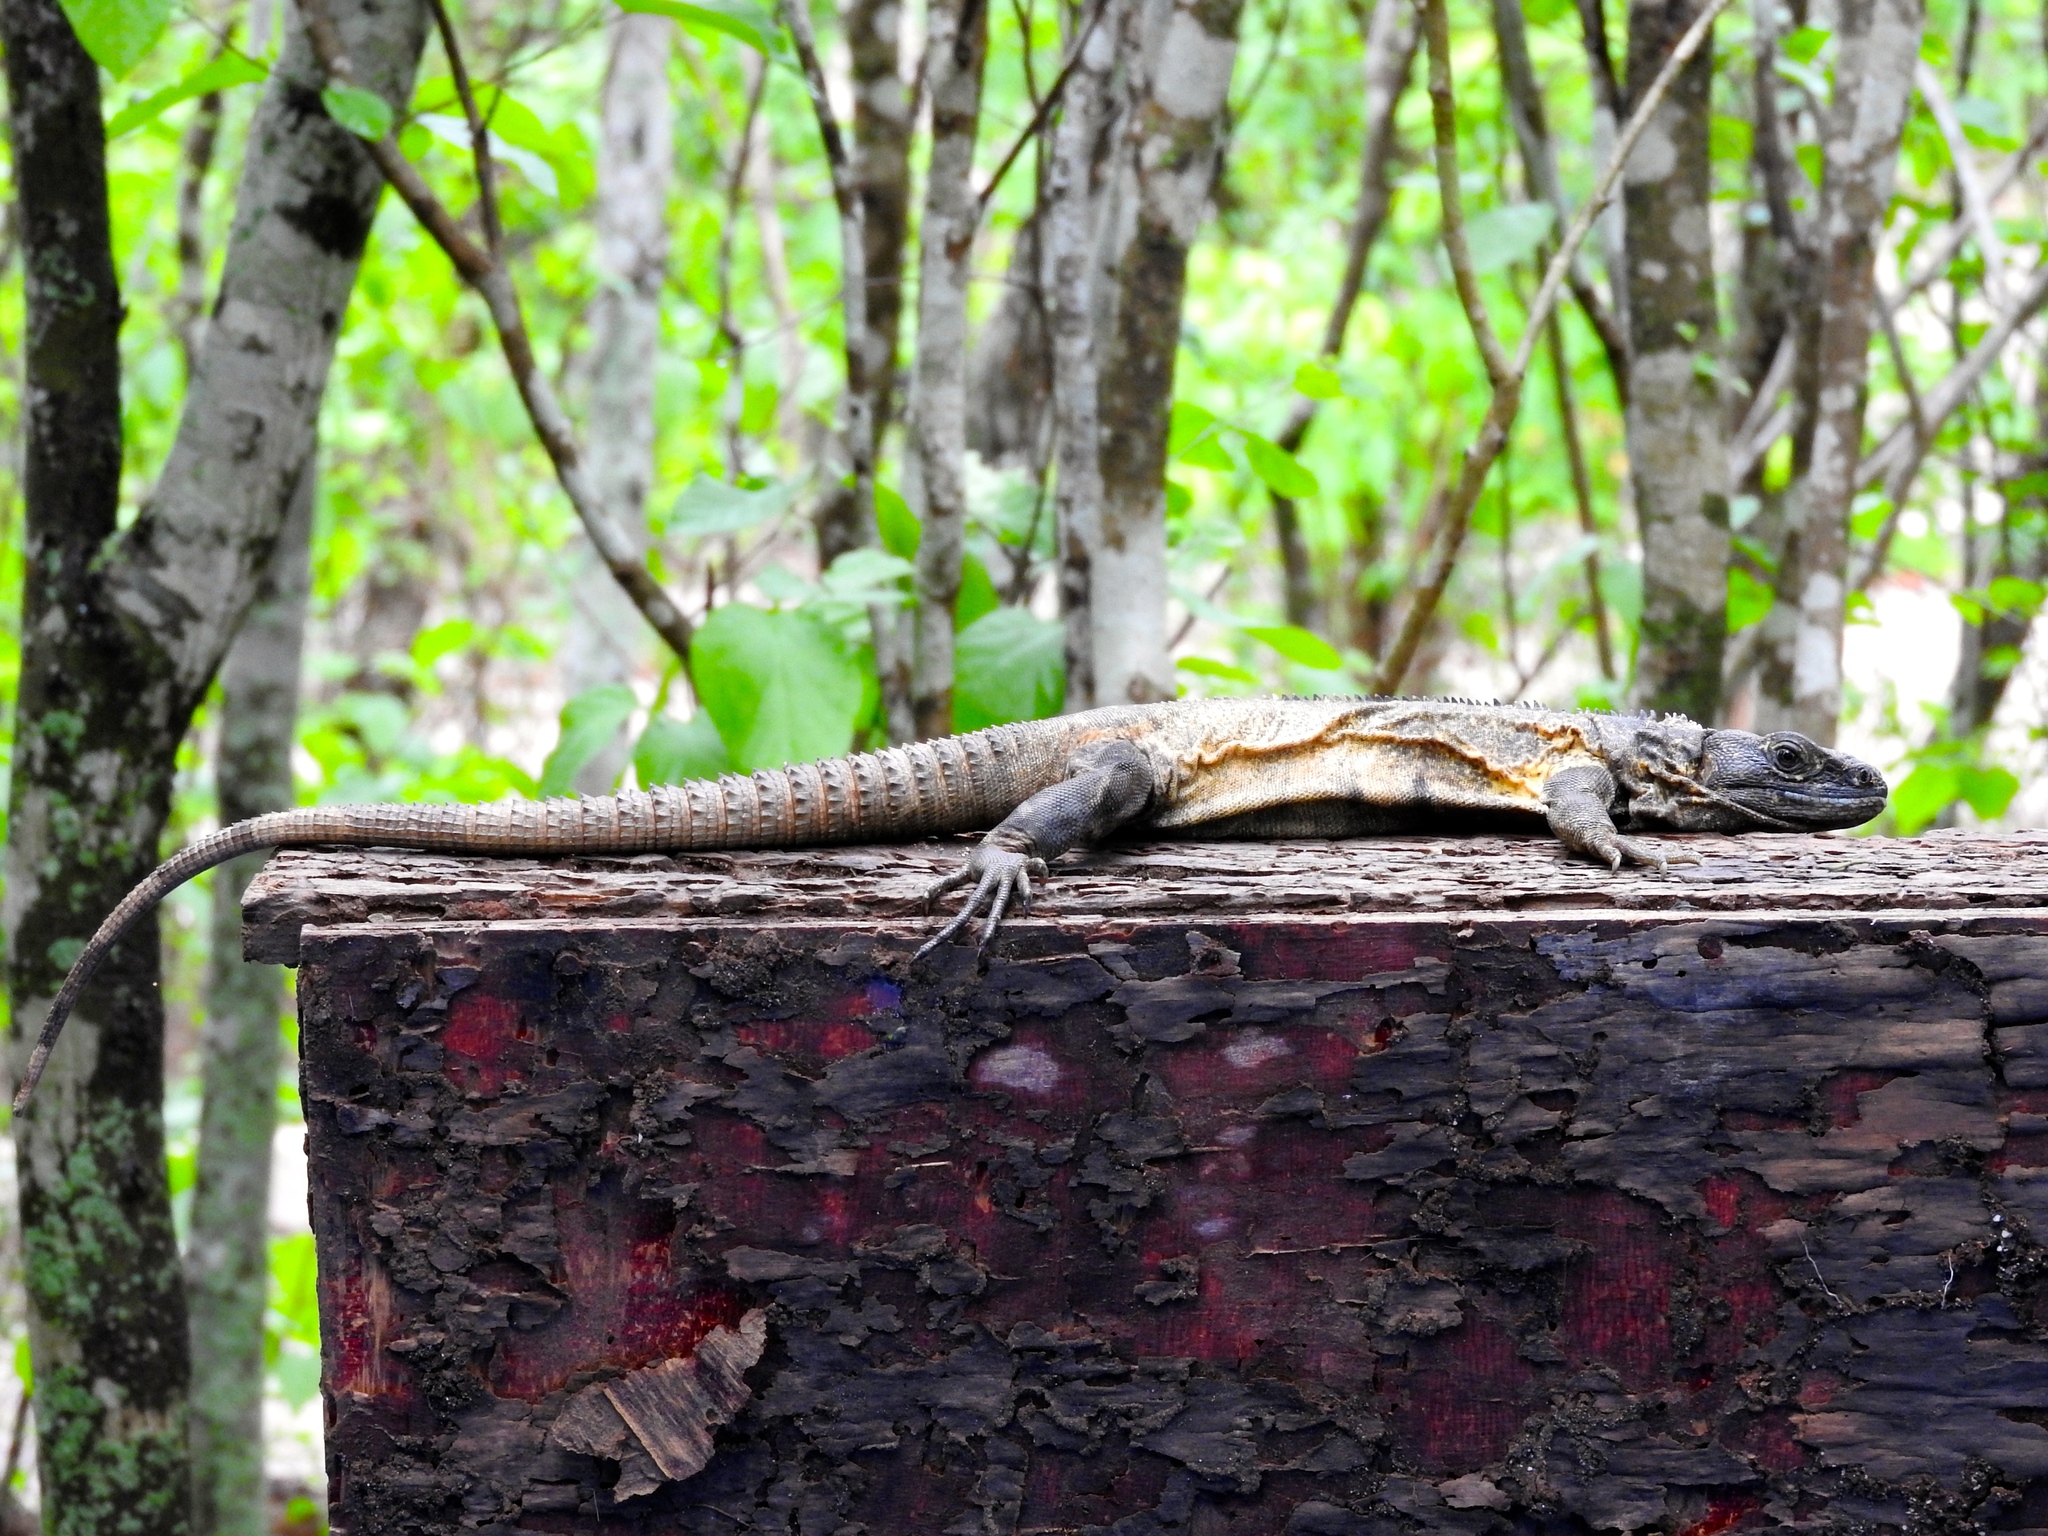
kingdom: Animalia
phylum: Chordata
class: Squamata
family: Iguanidae
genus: Ctenosaura
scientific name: Ctenosaura pectinata
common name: Guerreran spiny-tailed iguana
